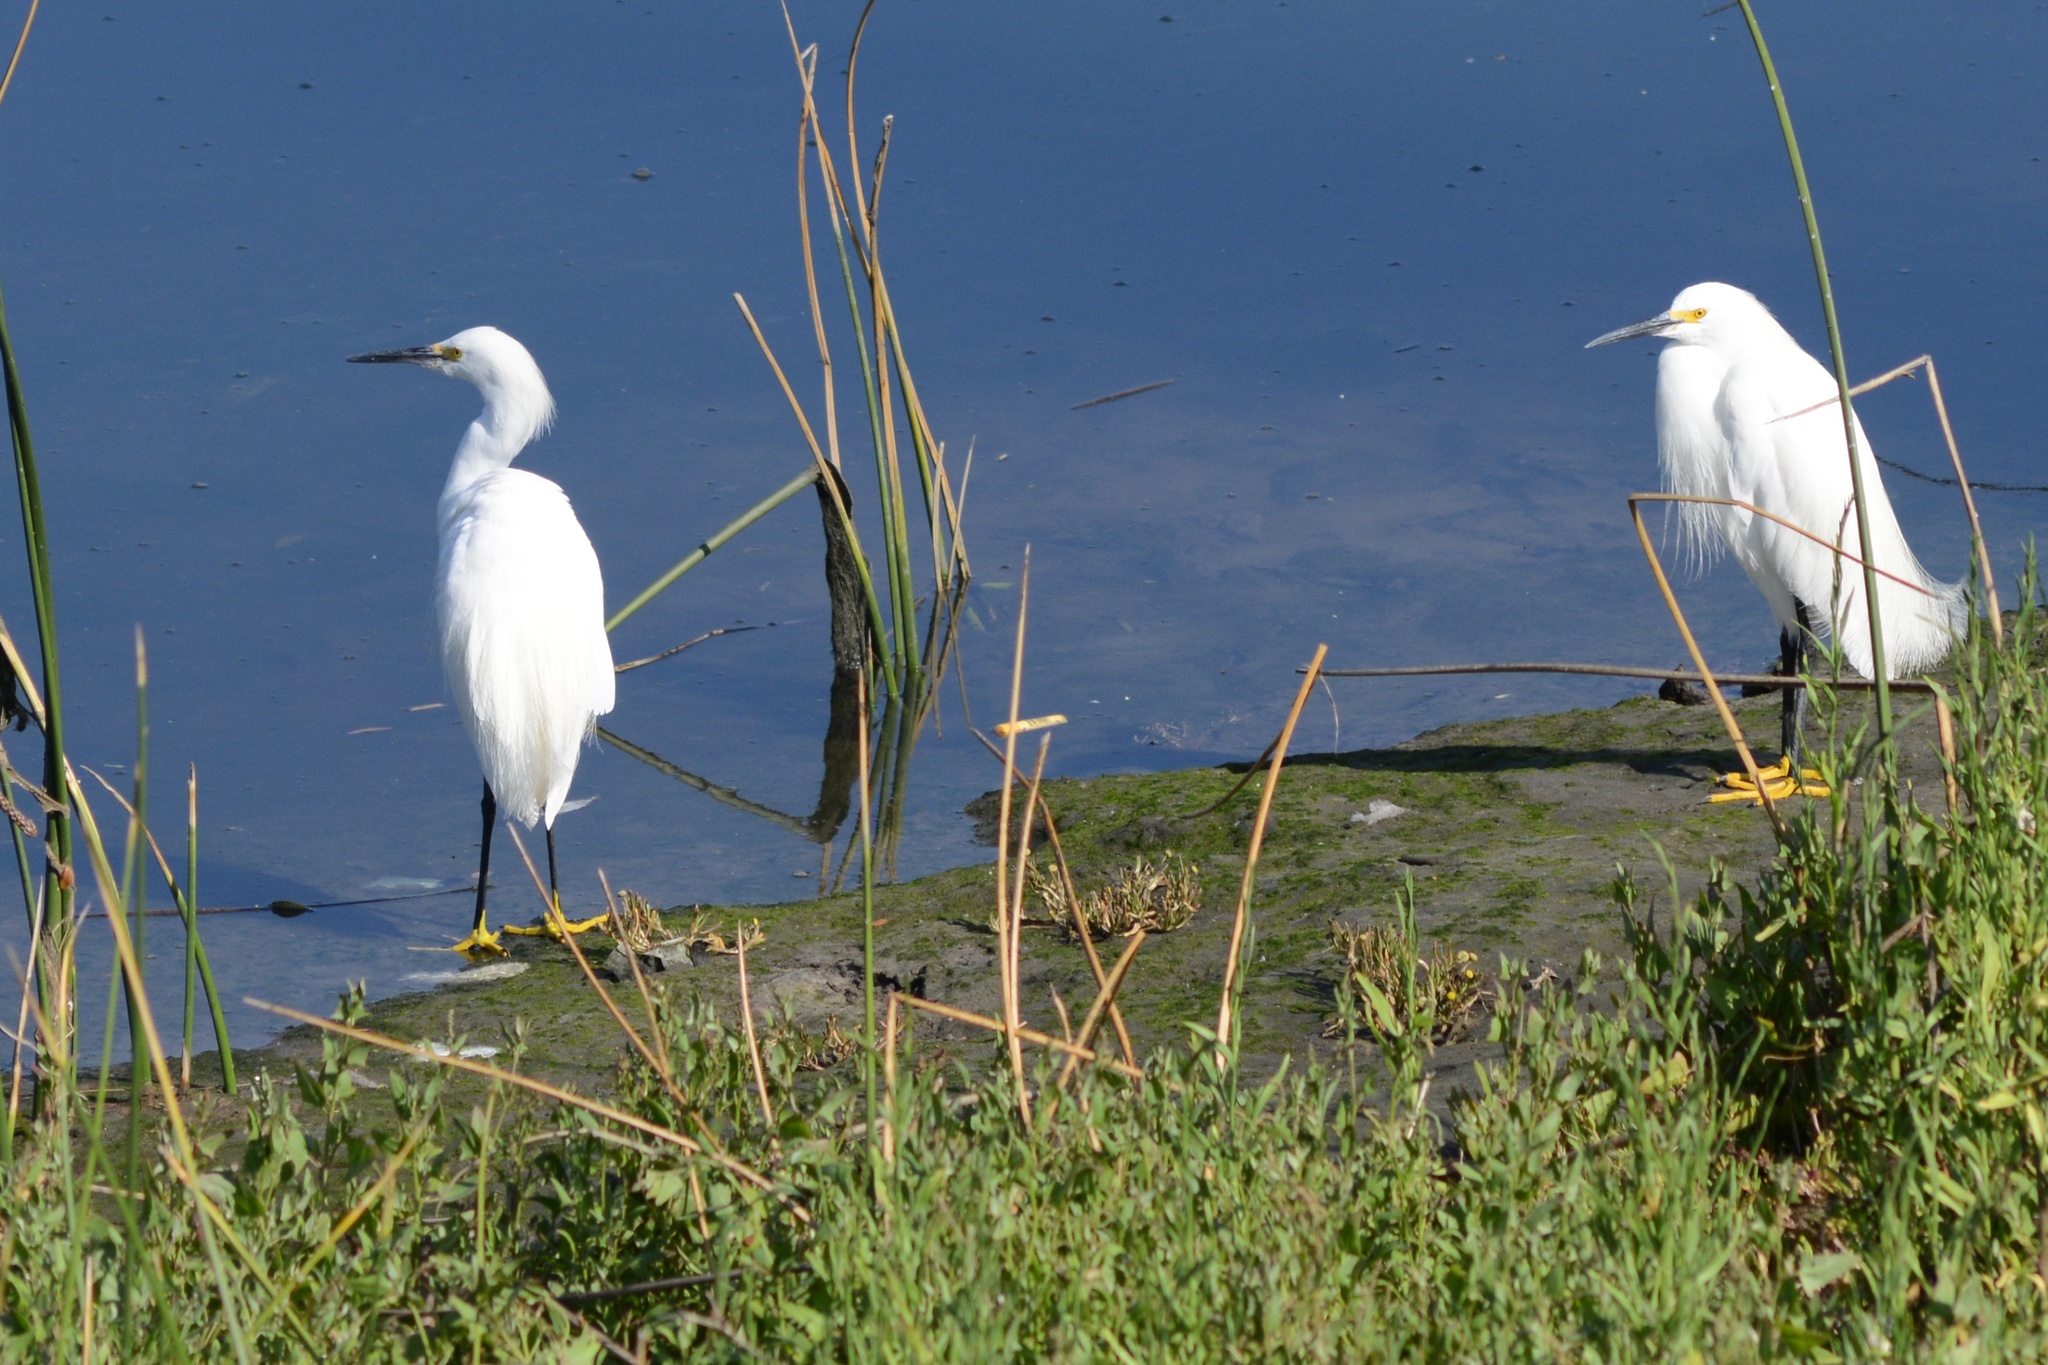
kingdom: Animalia
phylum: Chordata
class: Aves
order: Pelecaniformes
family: Ardeidae
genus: Egretta
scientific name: Egretta thula
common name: Snowy egret
